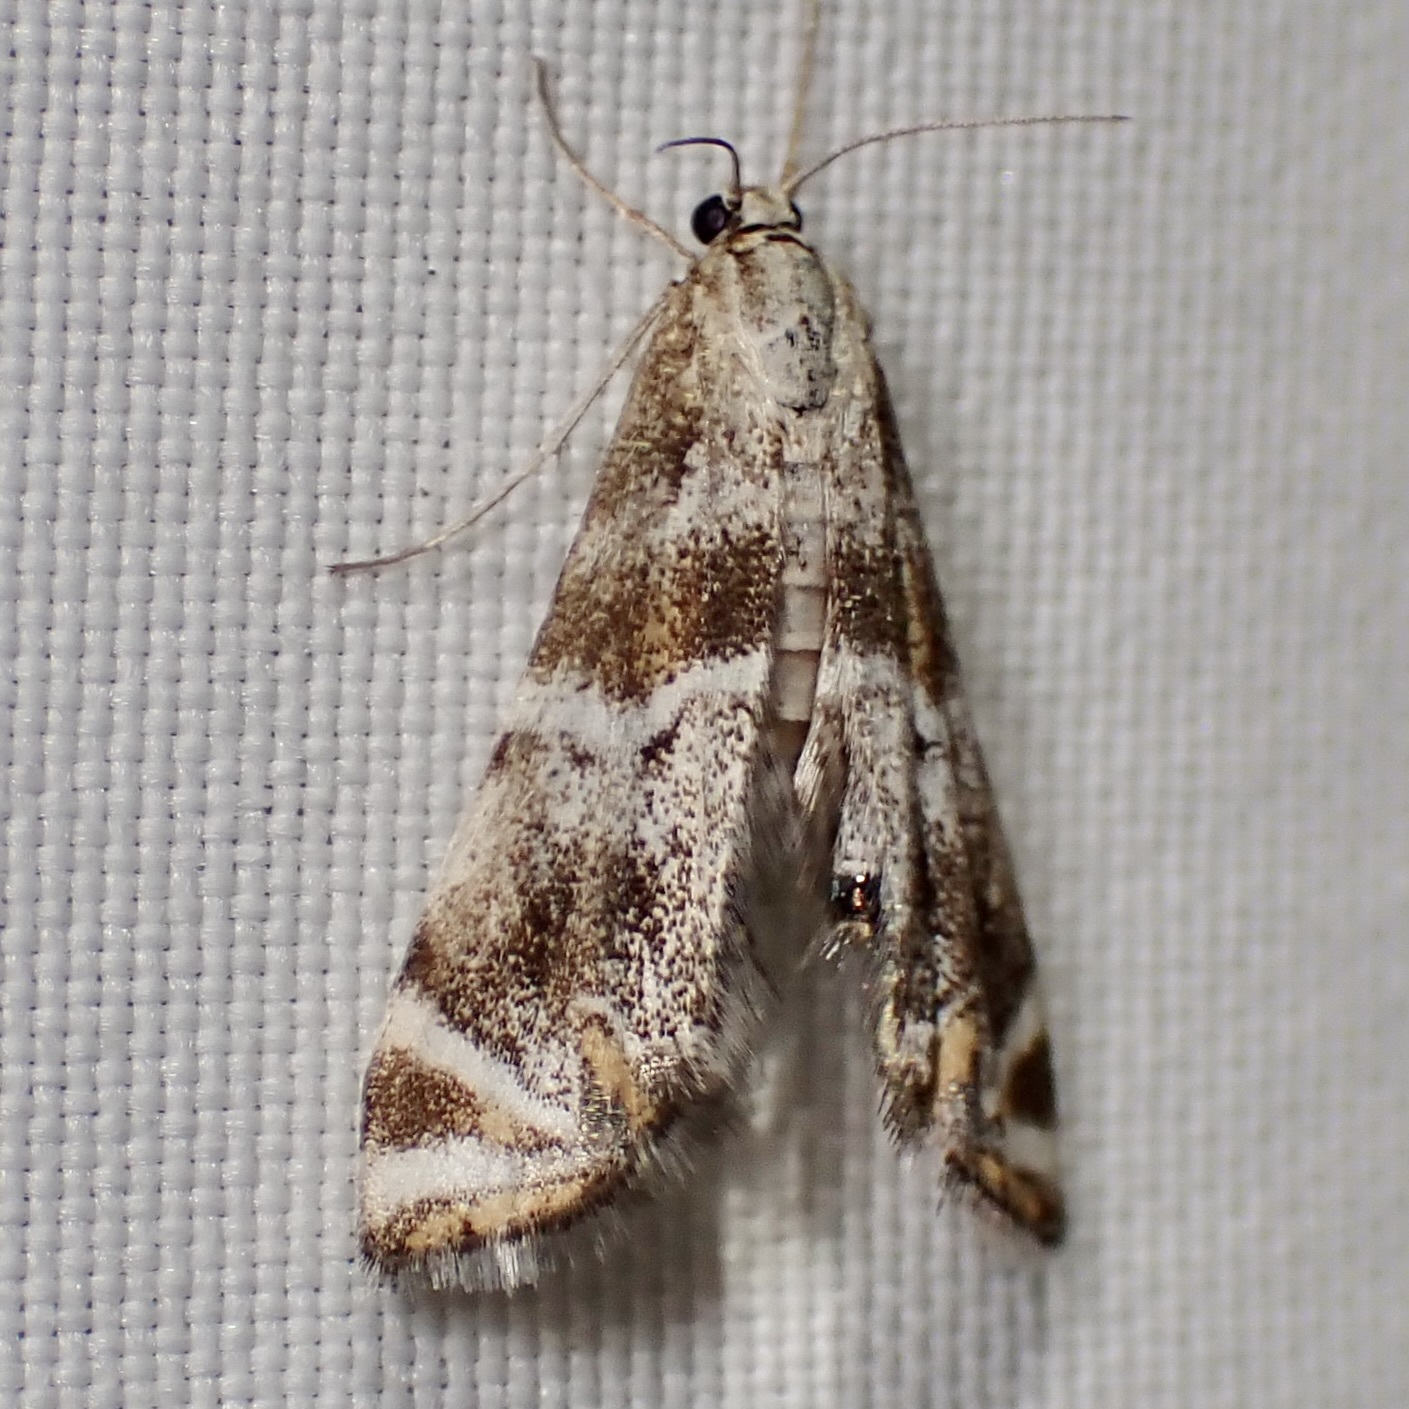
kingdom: Animalia
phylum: Arthropoda
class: Insecta
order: Lepidoptera
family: Crambidae
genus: Petrophila
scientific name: Petrophila jaliscalis
